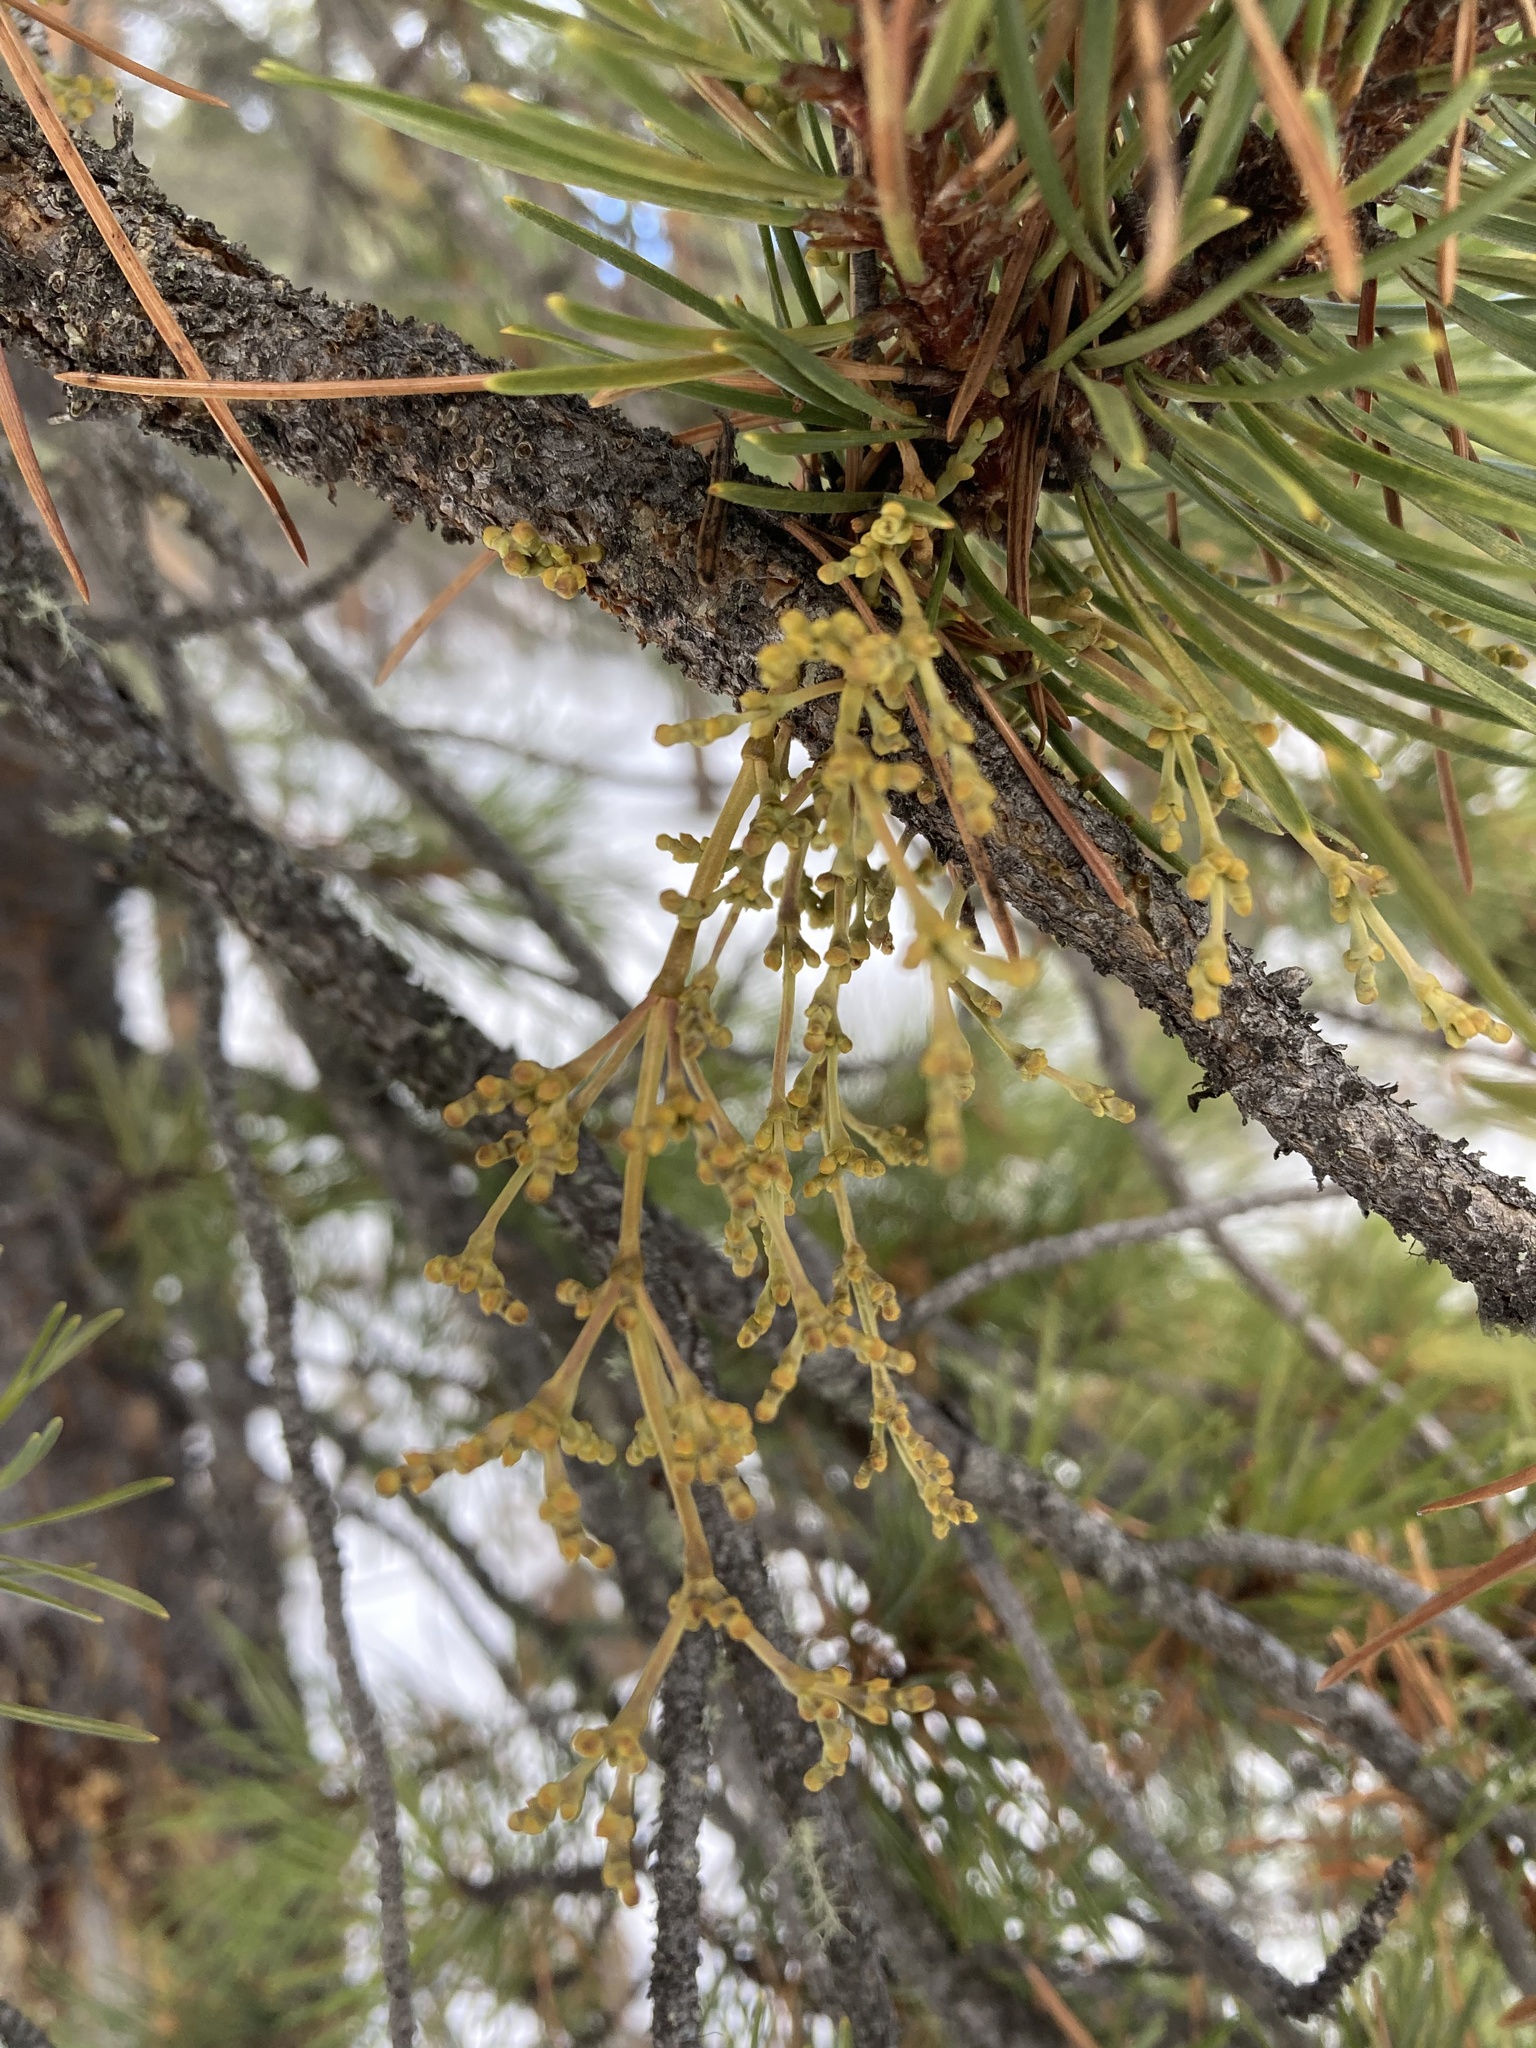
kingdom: Plantae
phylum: Tracheophyta
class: Magnoliopsida
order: Santalales
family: Viscaceae
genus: Arceuthobium
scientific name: Arceuthobium americanum
